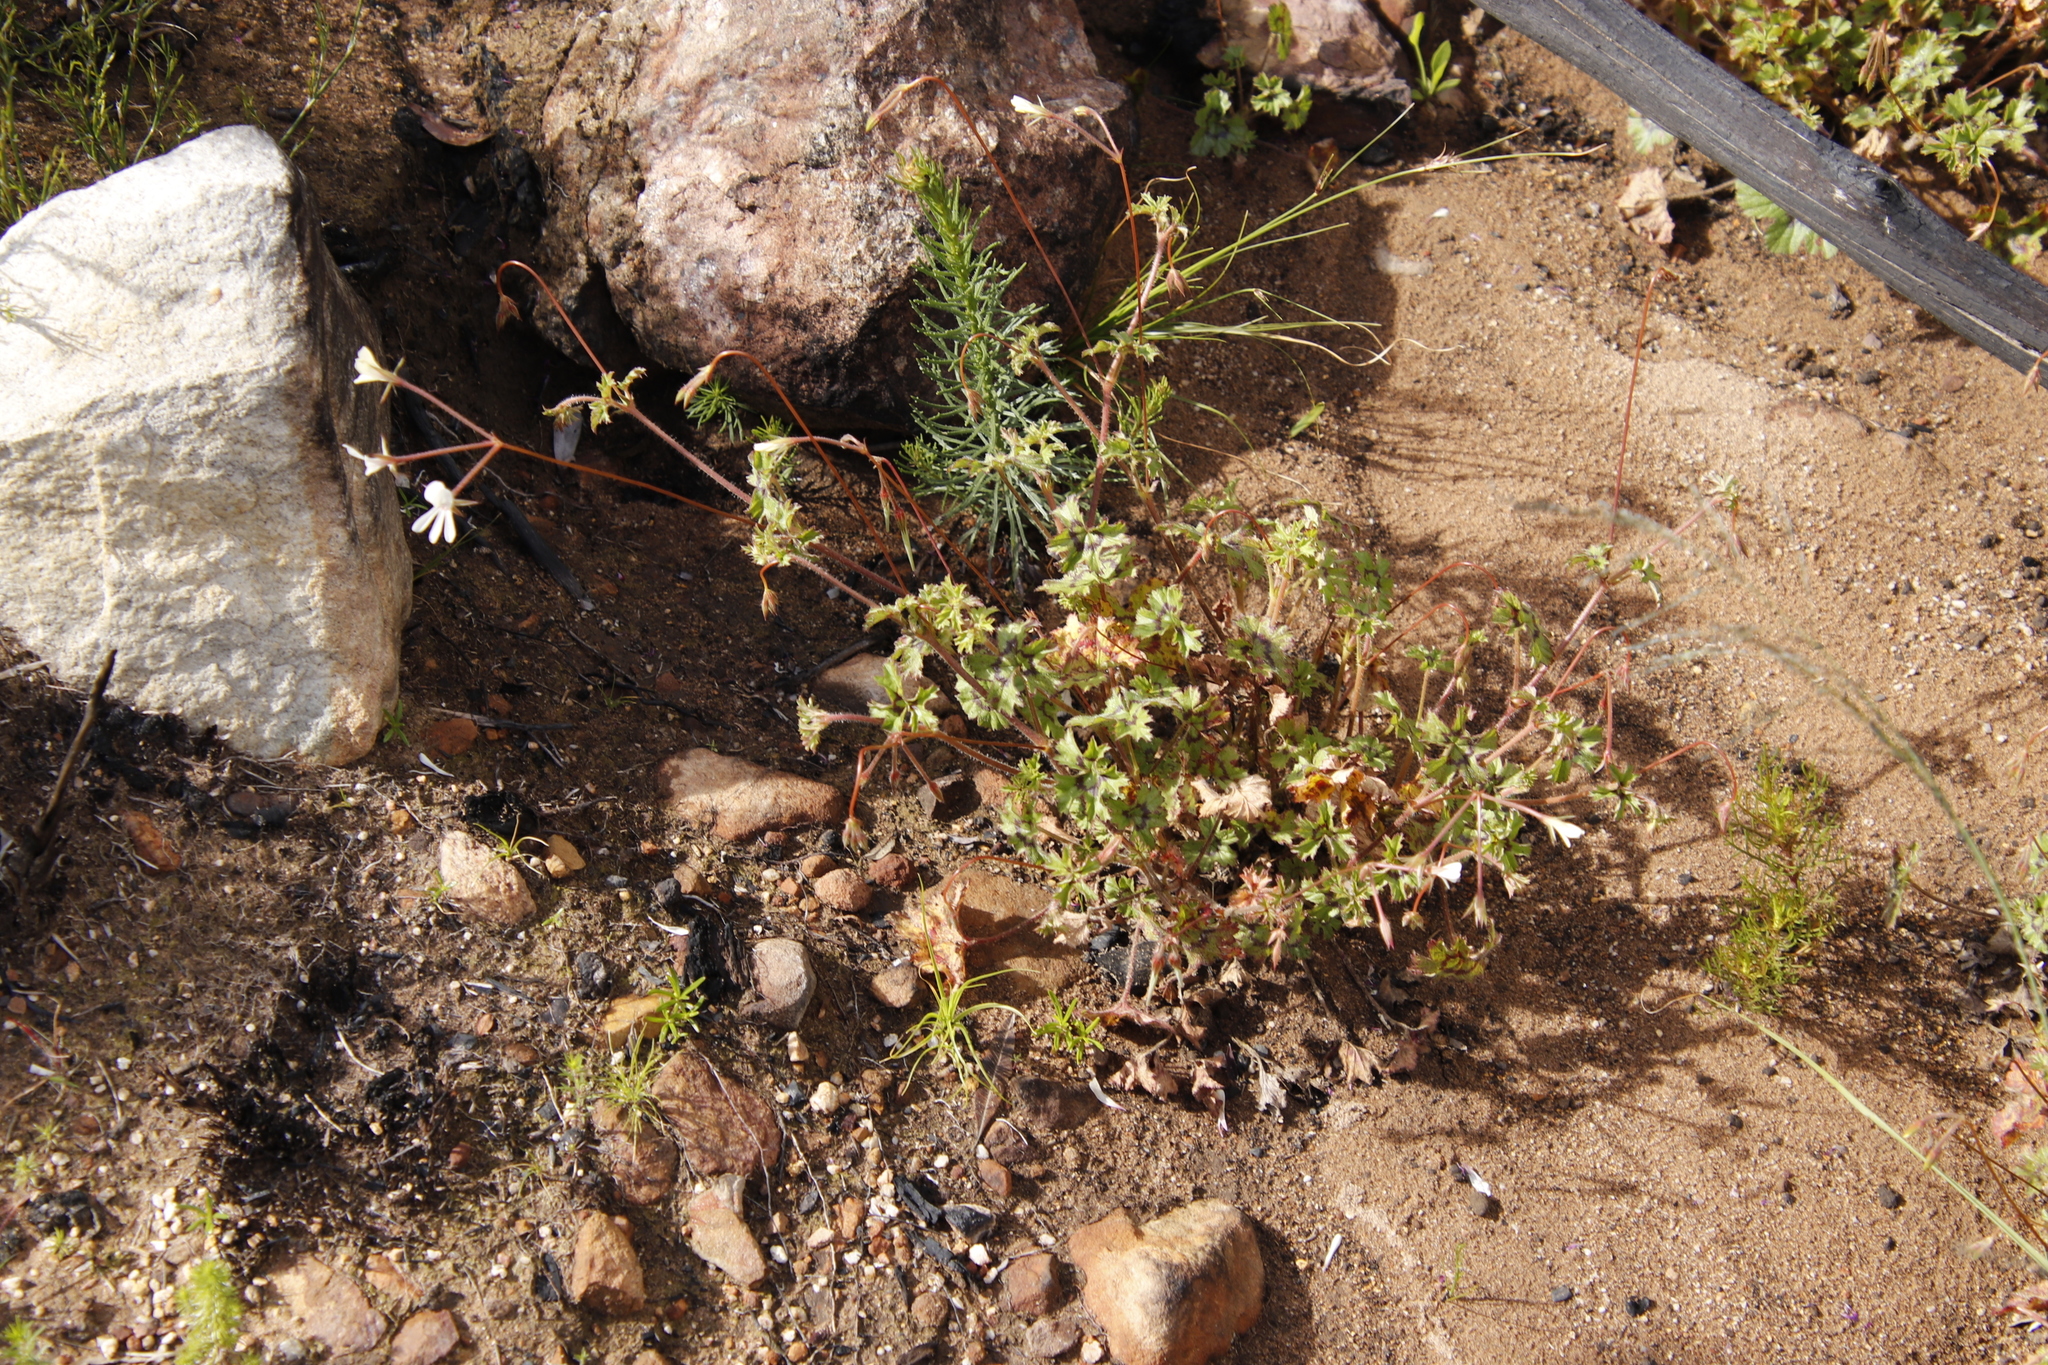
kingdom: Plantae
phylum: Tracheophyta
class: Magnoliopsida
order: Geraniales
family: Geraniaceae
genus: Pelargonium
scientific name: Pelargonium elongatum
